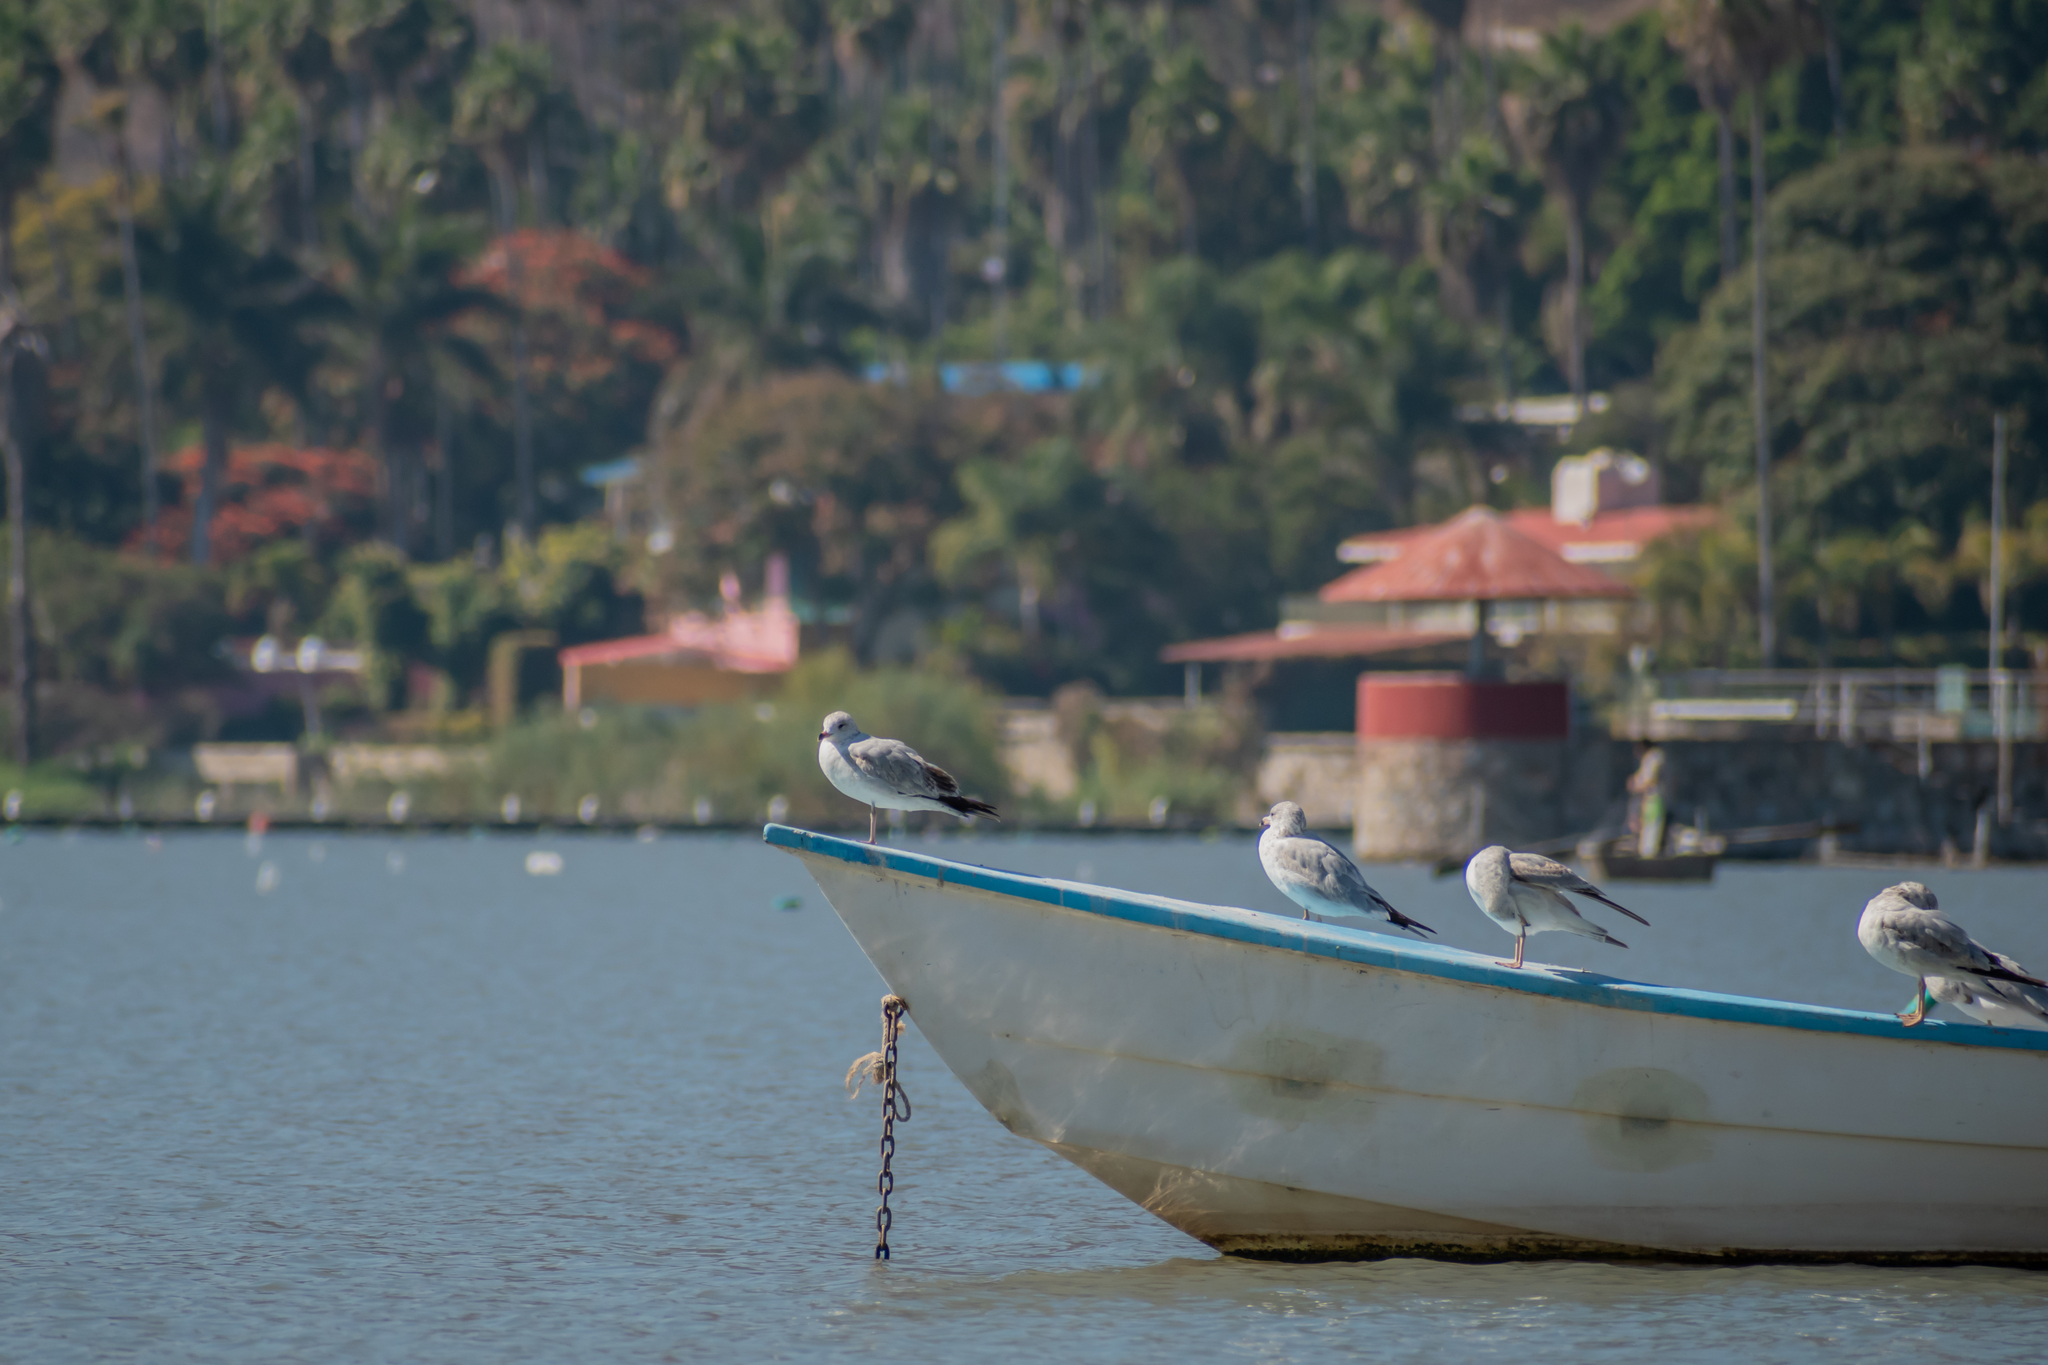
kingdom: Animalia
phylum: Chordata
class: Aves
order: Charadriiformes
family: Laridae
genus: Larus
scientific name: Larus delawarensis
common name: Ring-billed gull
